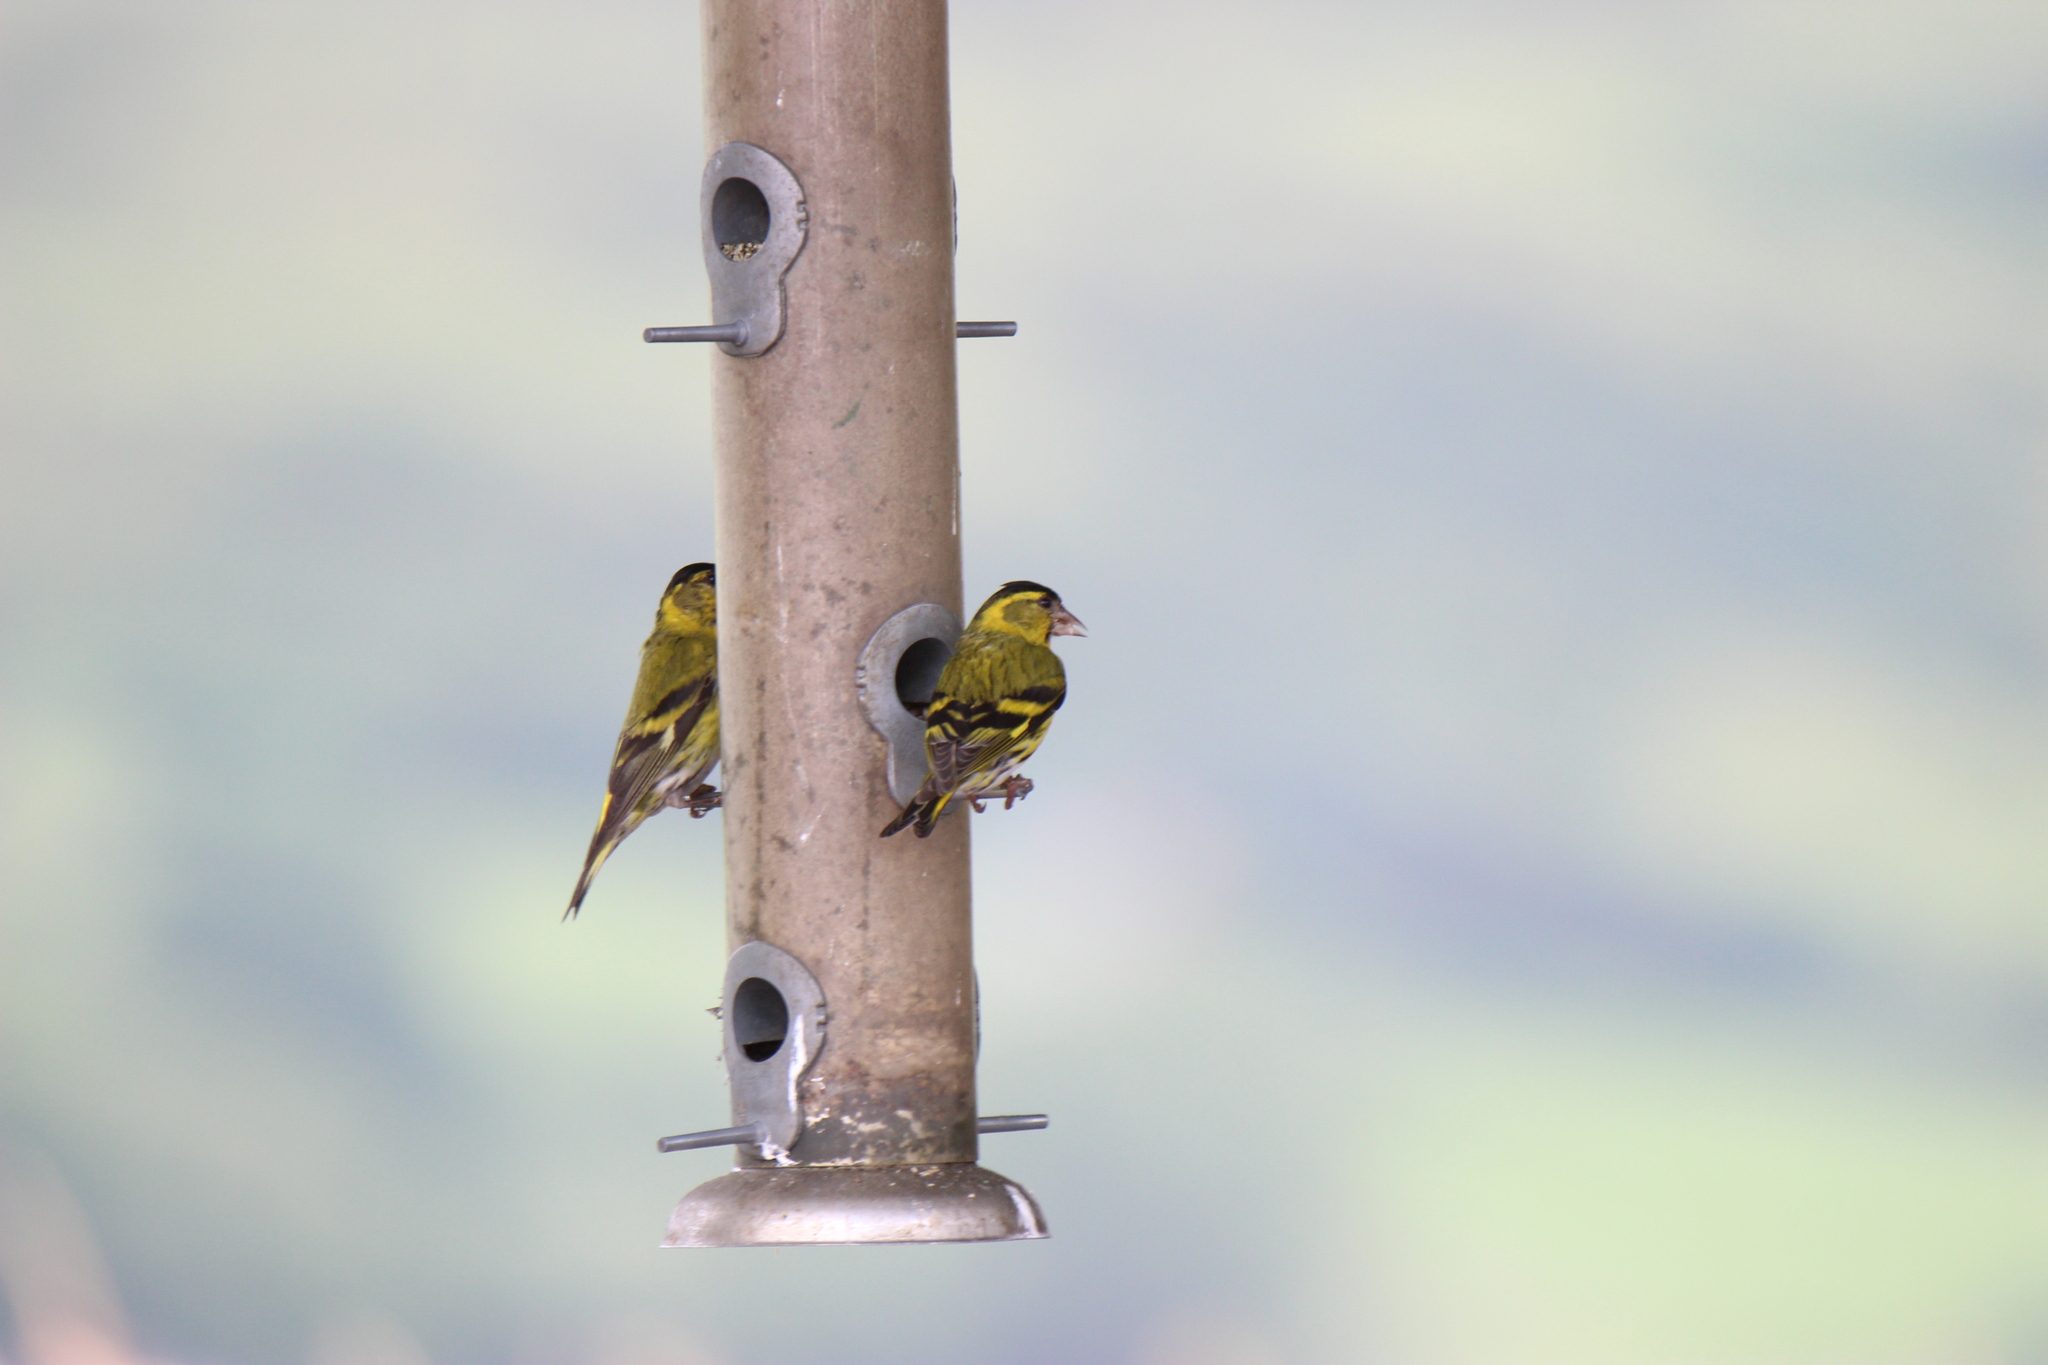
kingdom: Animalia
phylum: Chordata
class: Aves
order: Passeriformes
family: Fringillidae
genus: Spinus
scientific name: Spinus spinus
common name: Eurasian siskin
